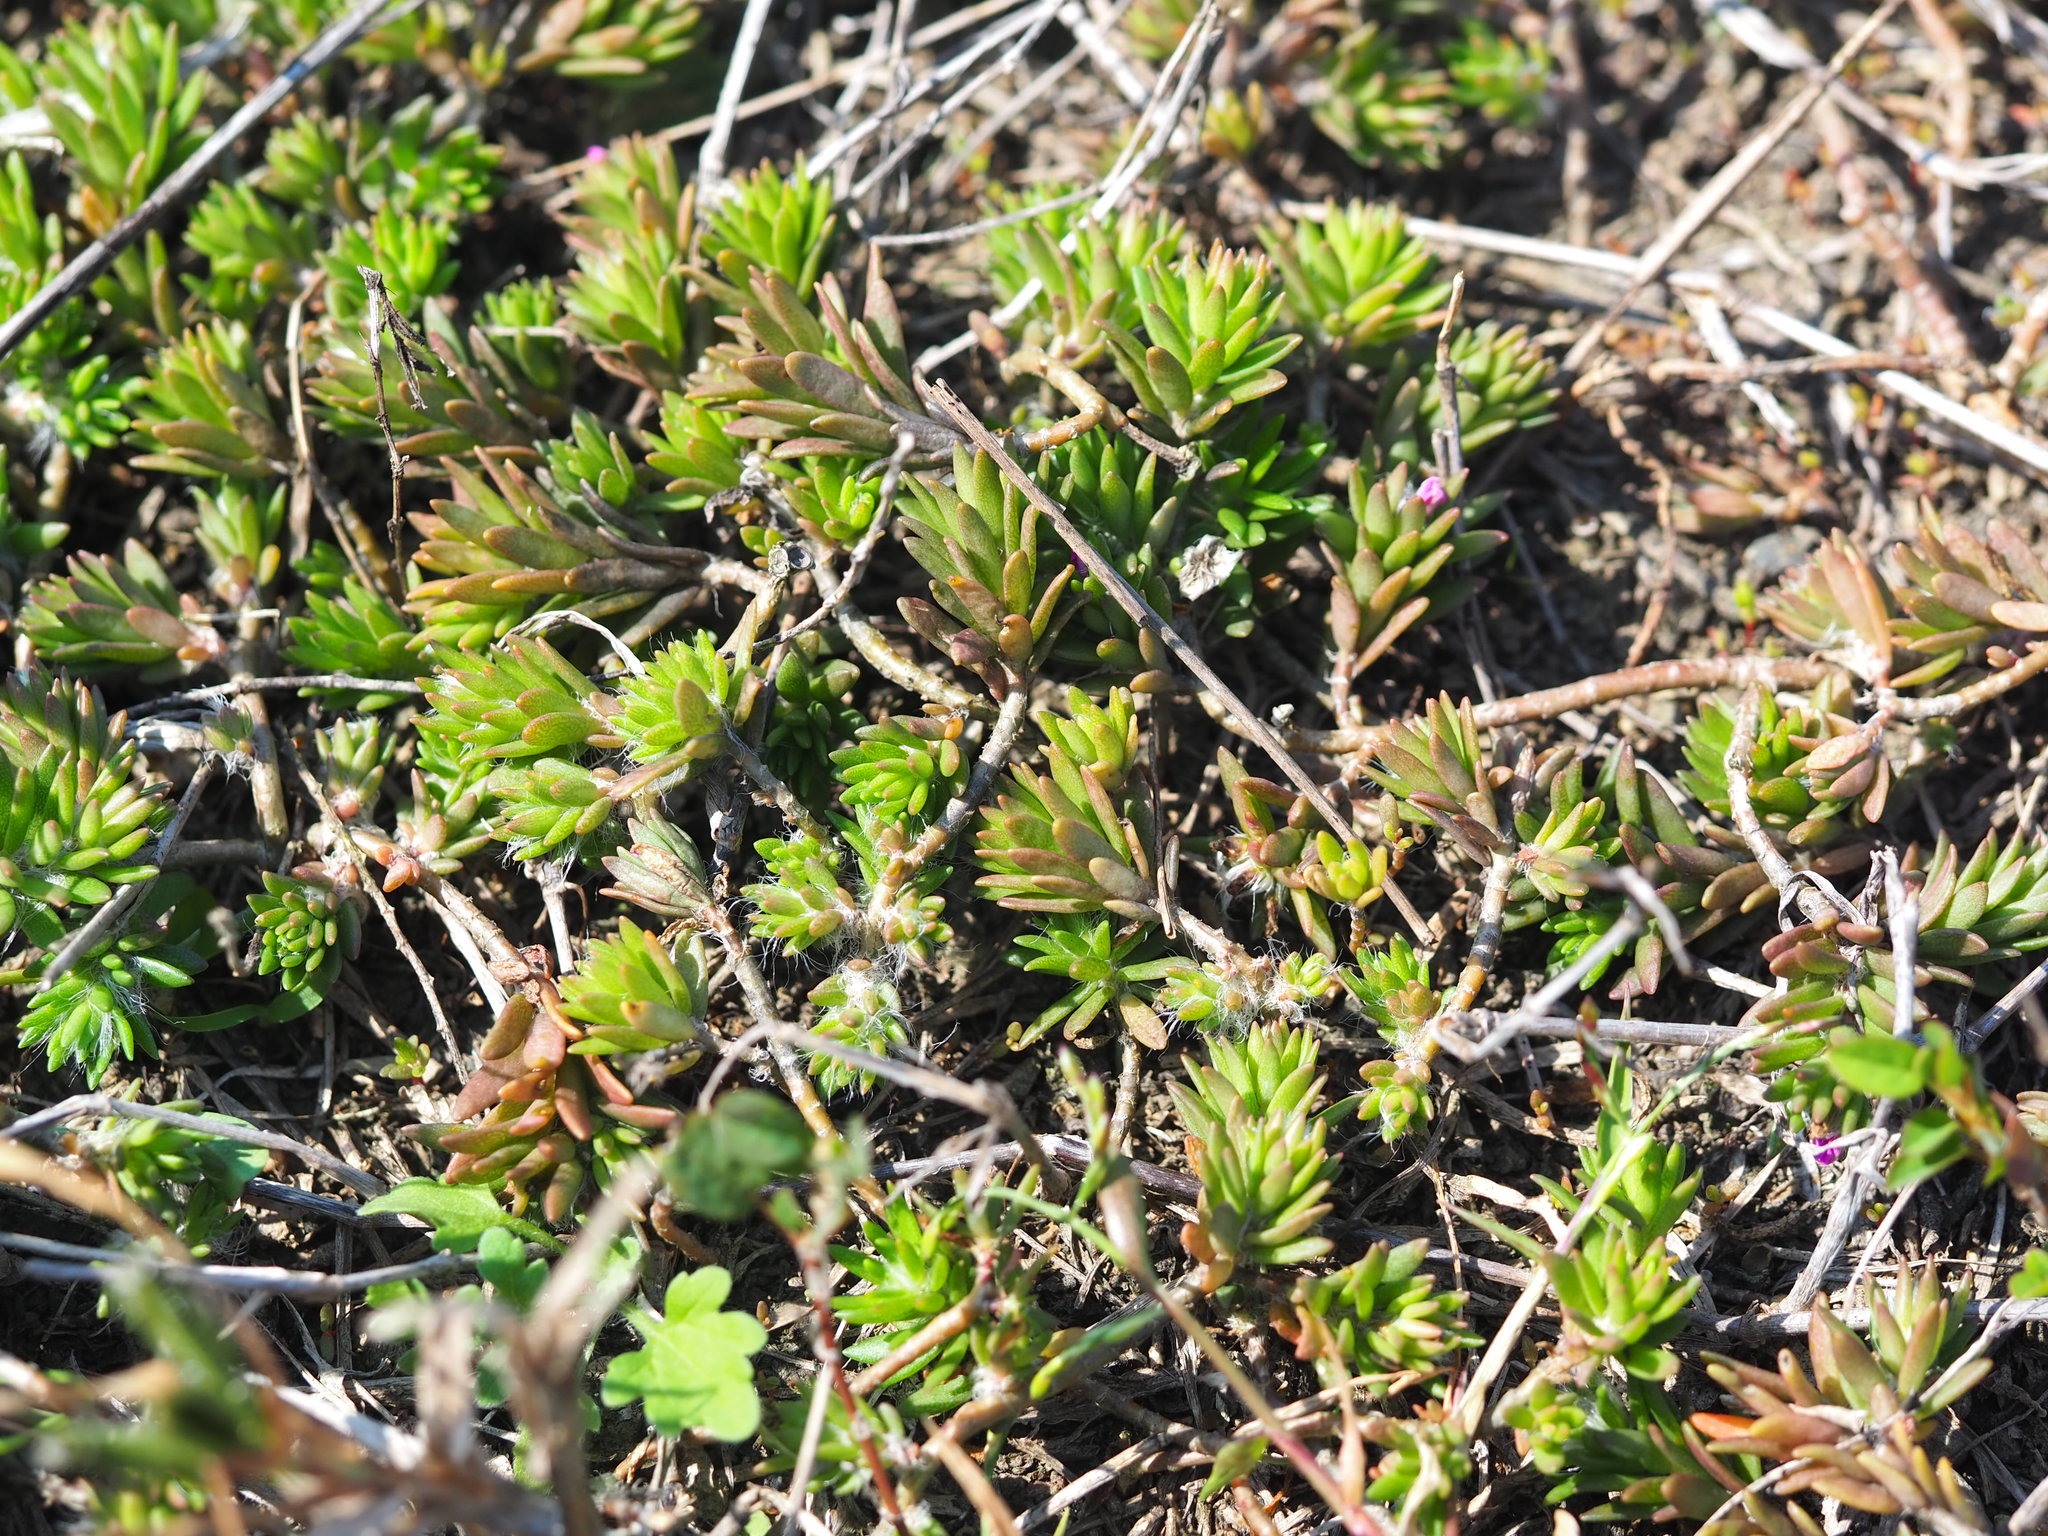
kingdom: Plantae
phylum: Tracheophyta
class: Magnoliopsida
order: Caryophyllales
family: Portulacaceae
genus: Portulaca
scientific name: Portulaca pilosa
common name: Kiss me quick
